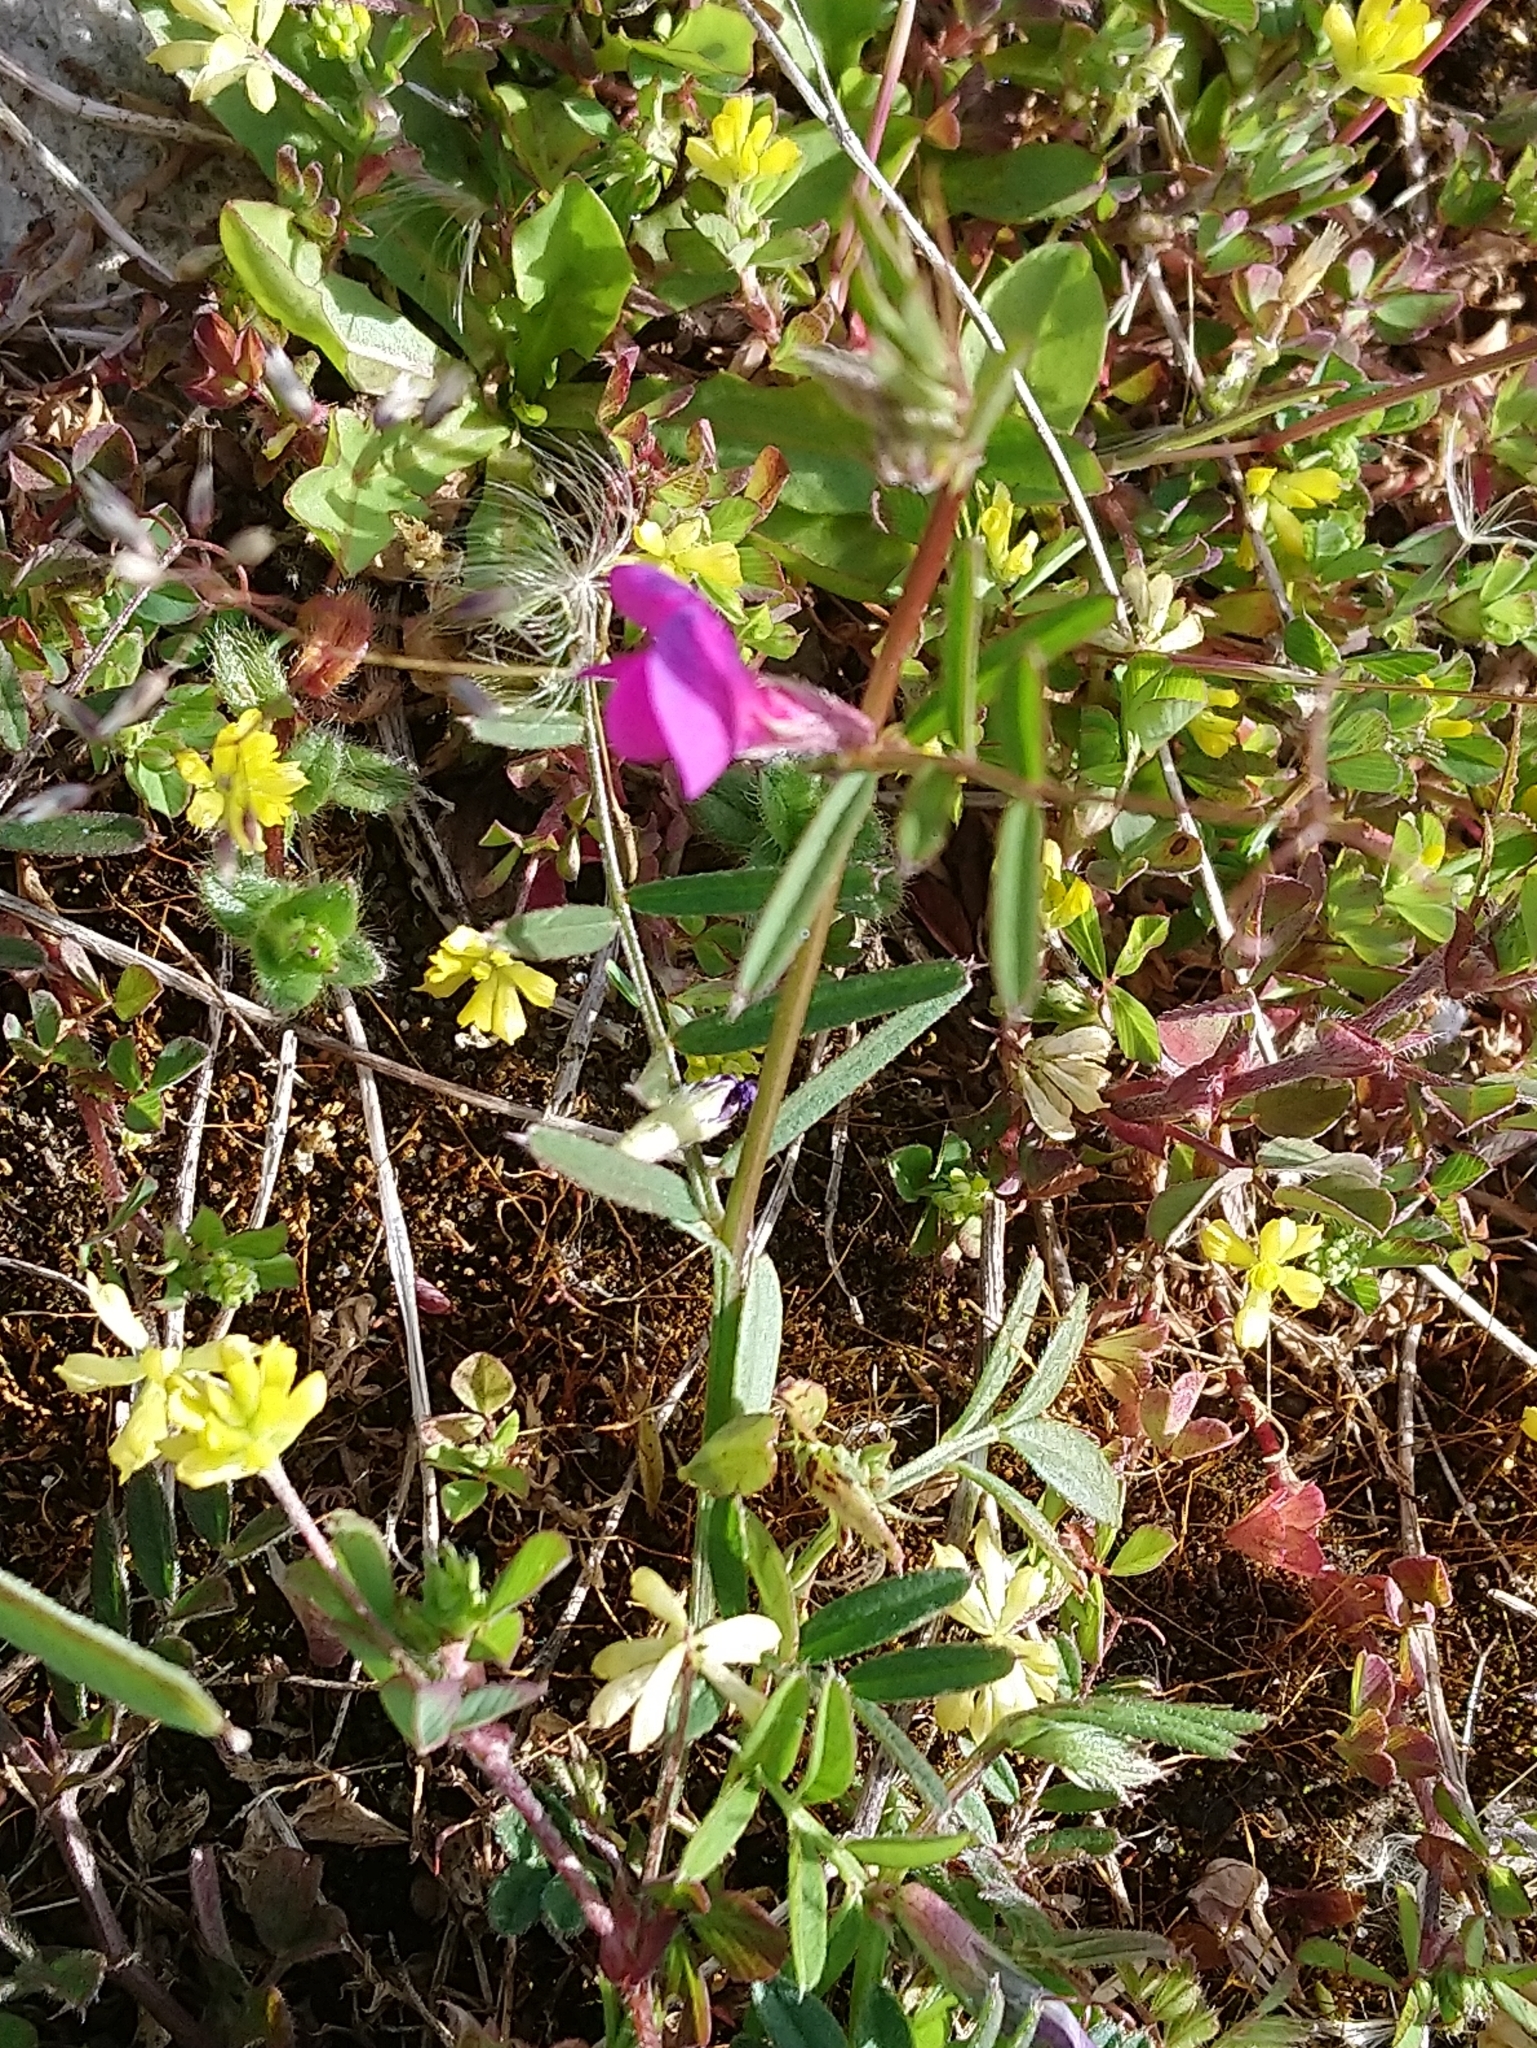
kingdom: Plantae
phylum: Tracheophyta
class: Magnoliopsida
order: Fabales
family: Fabaceae
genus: Vicia
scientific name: Vicia sativa
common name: Garden vetch
